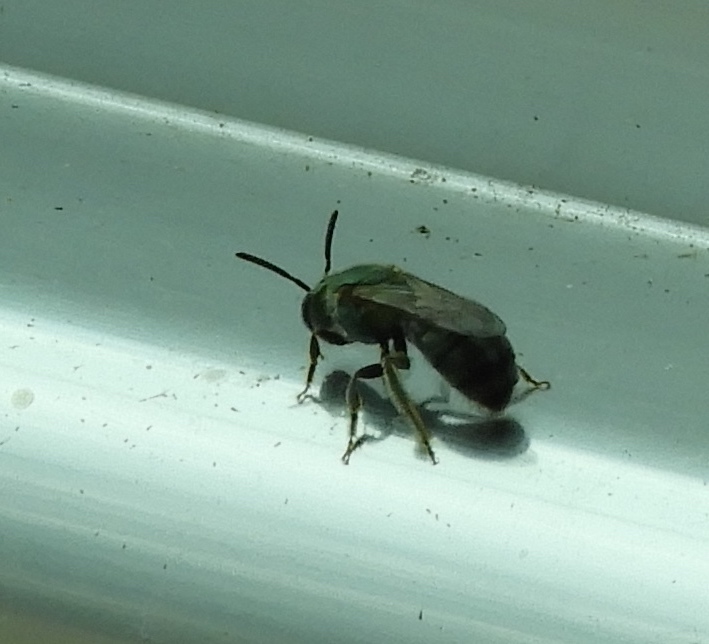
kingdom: Animalia
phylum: Arthropoda
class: Insecta
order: Hymenoptera
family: Halictidae
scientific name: Halictidae
